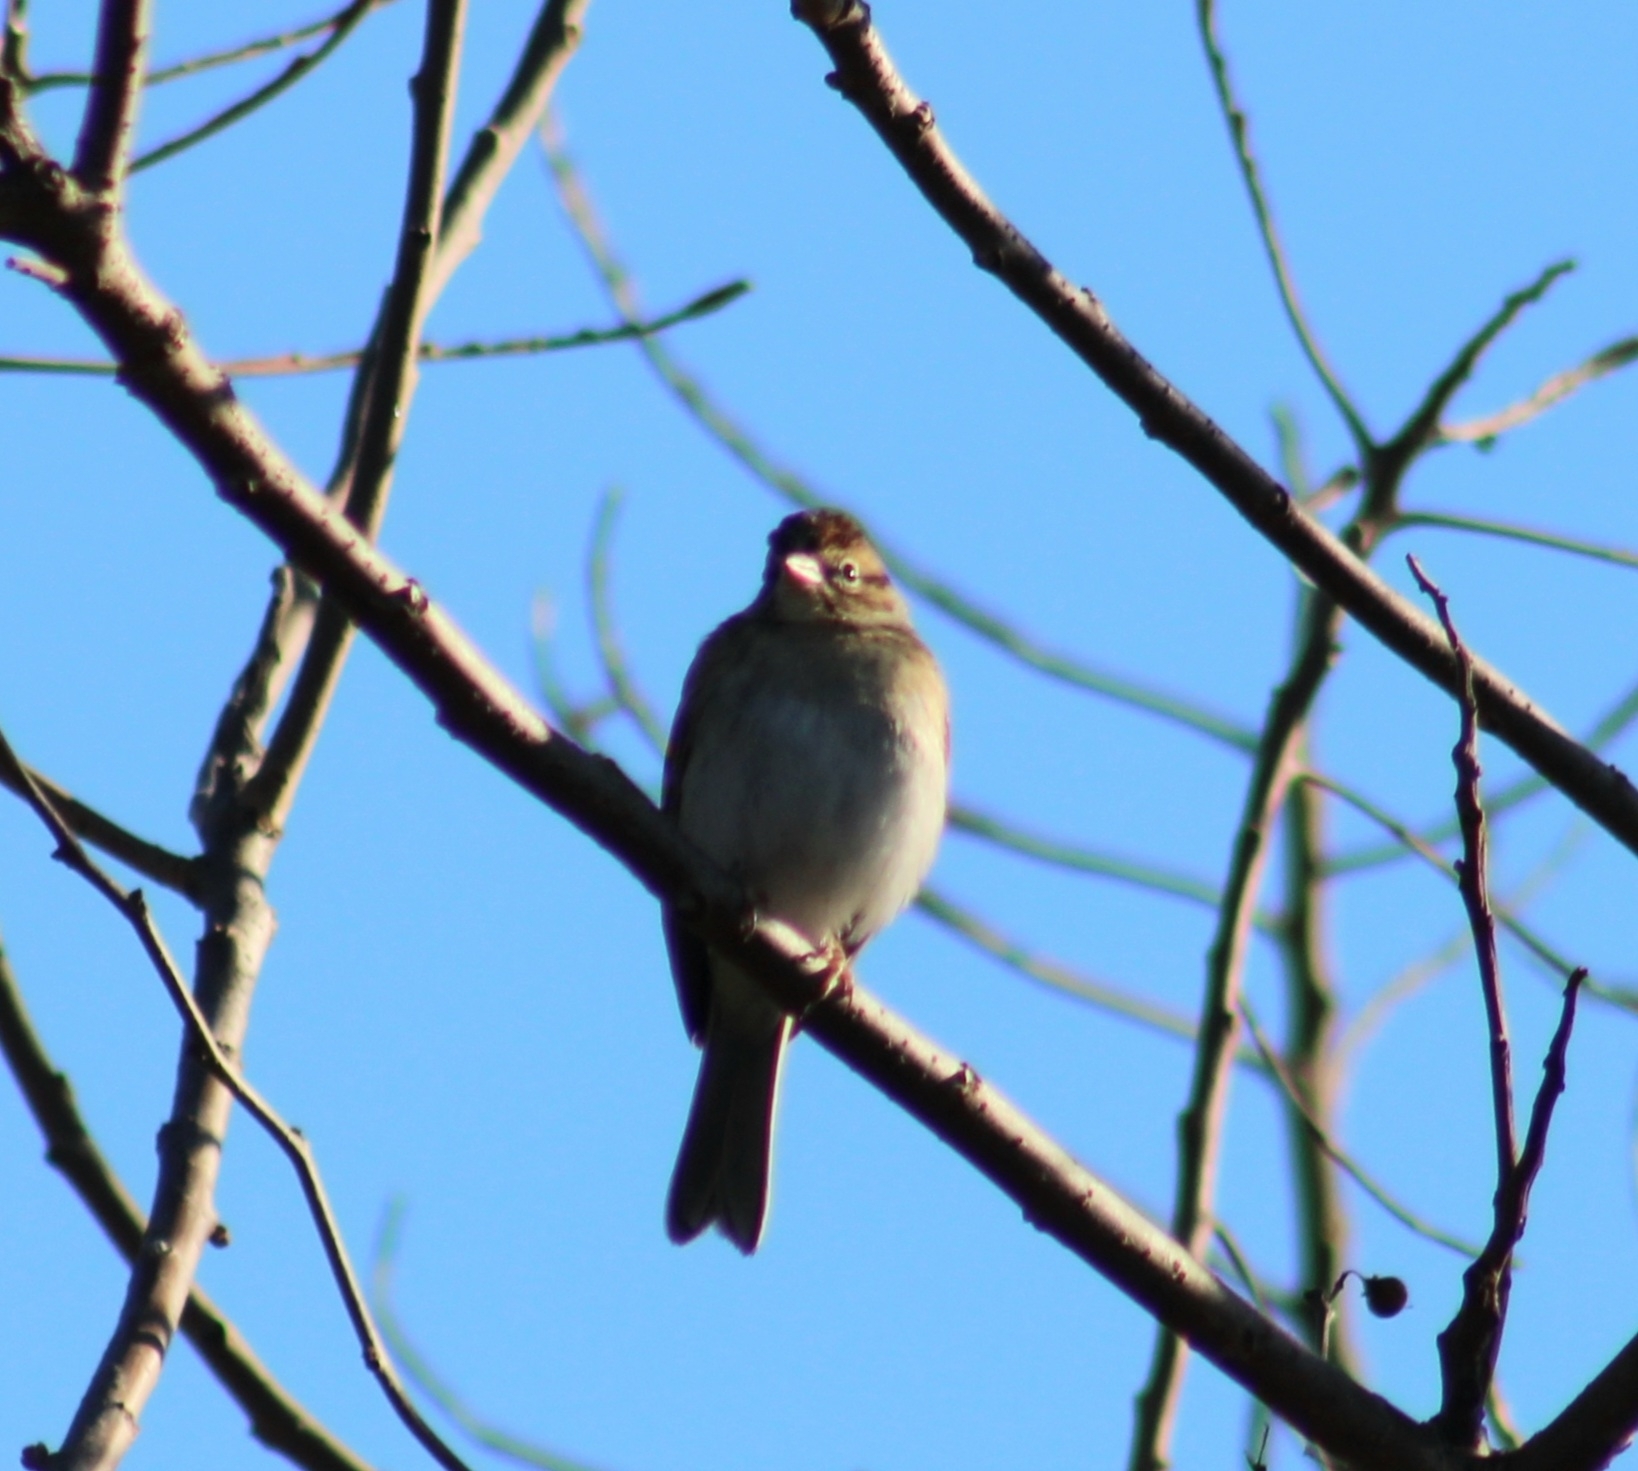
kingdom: Animalia
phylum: Chordata
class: Aves
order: Passeriformes
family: Passerellidae
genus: Spizella
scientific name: Spizella passerina
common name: Chipping sparrow
